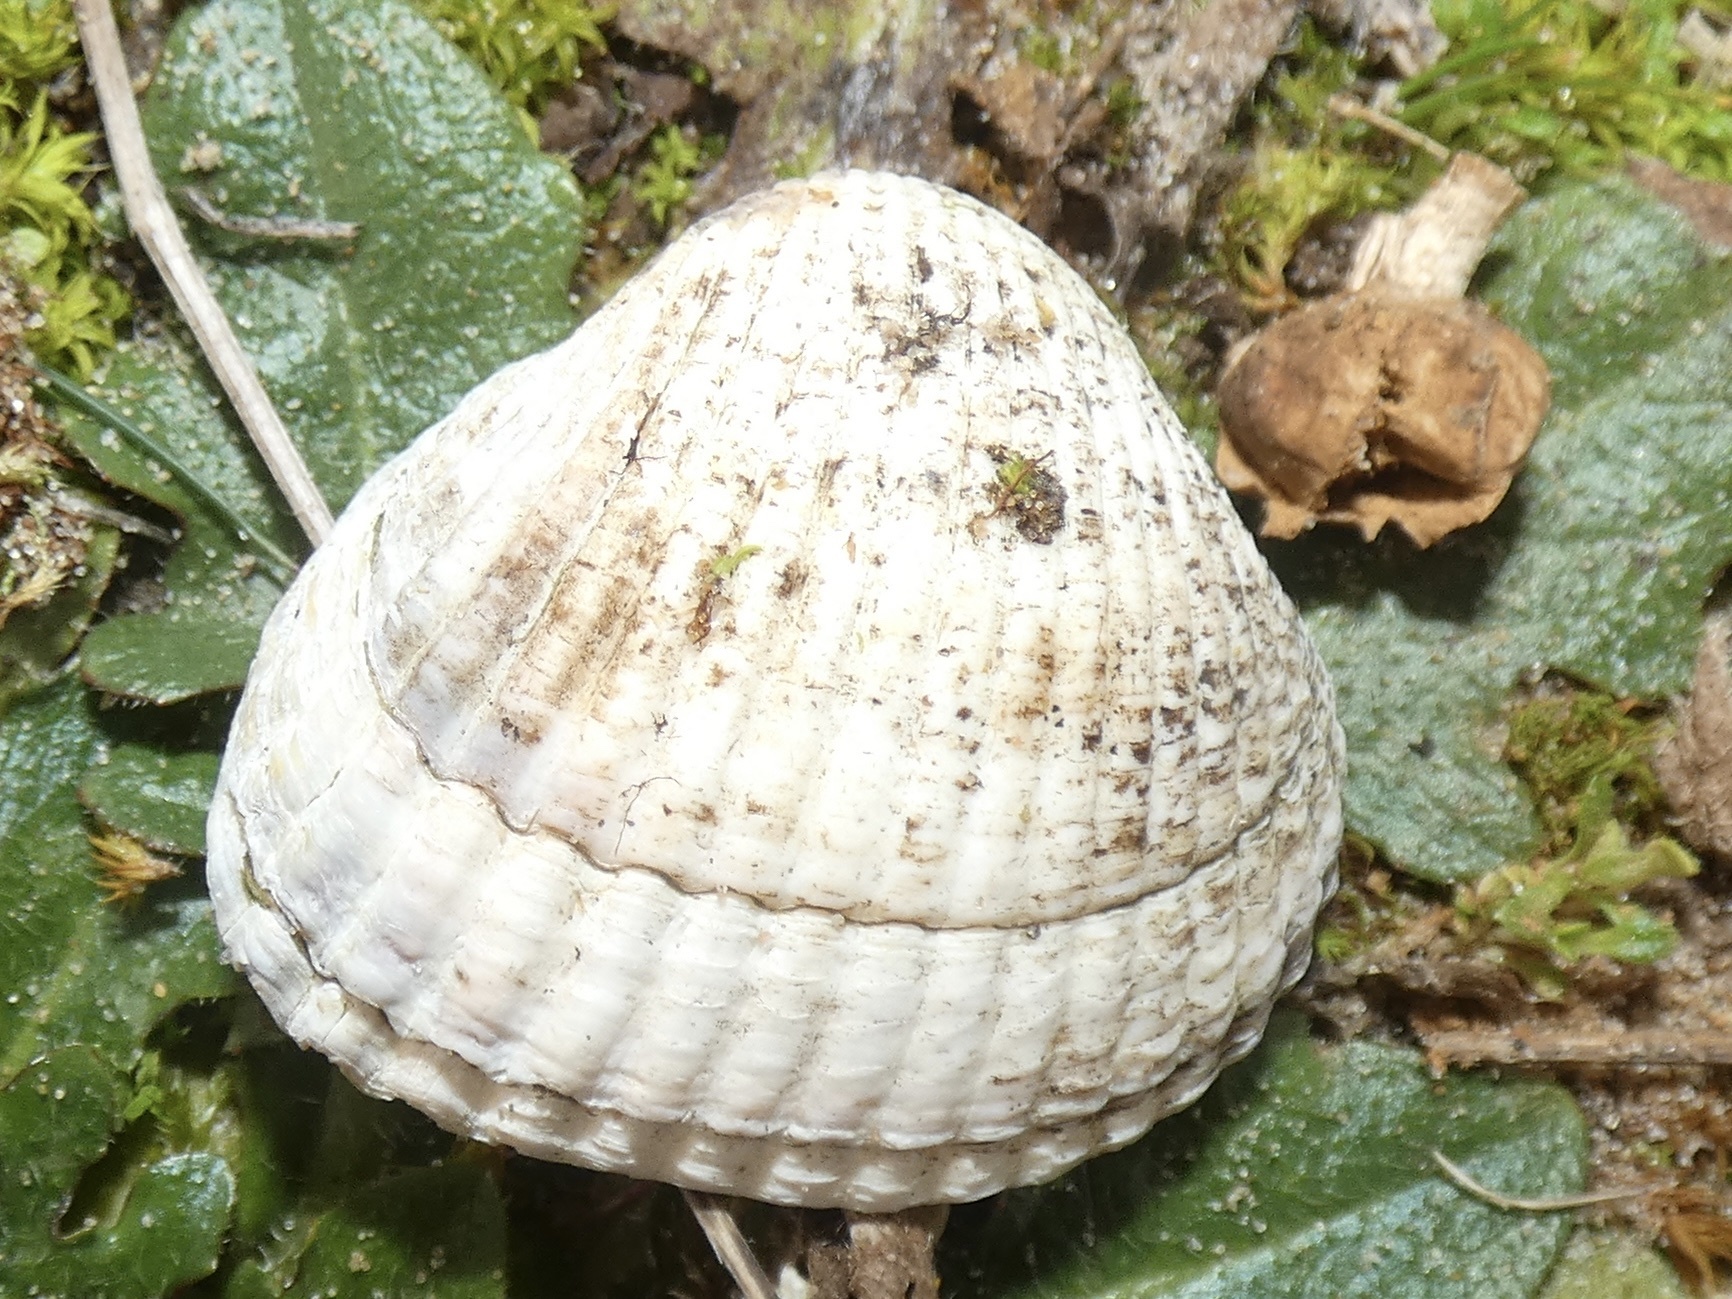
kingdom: Animalia
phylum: Mollusca
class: Bivalvia
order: Cardiida
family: Cardiidae
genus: Cerastoderma
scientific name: Cerastoderma edule
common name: Common cockle
